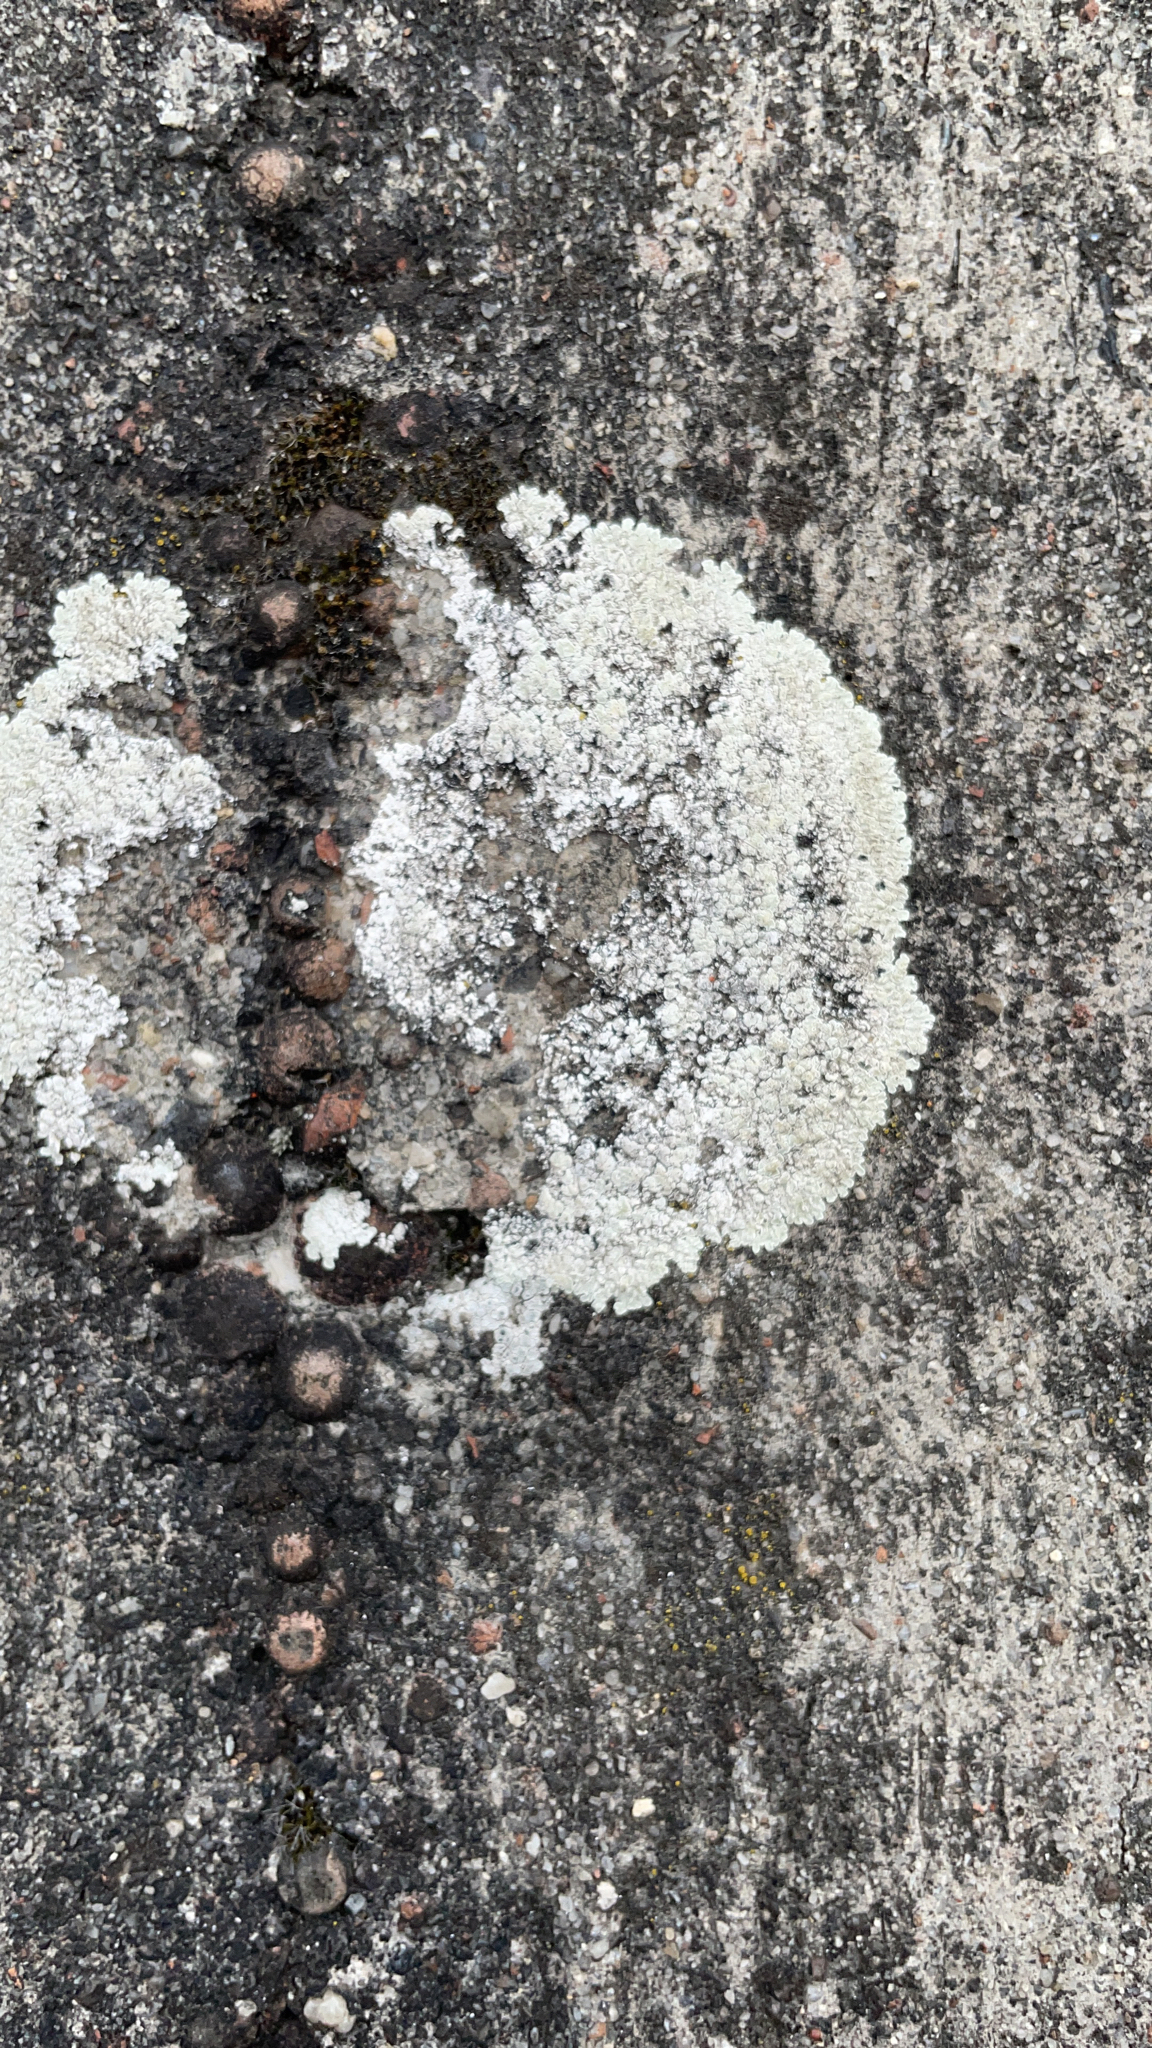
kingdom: Fungi
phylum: Ascomycota
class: Lecanoromycetes
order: Lecanorales
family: Lecanoraceae
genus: Protoparmeliopsis
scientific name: Protoparmeliopsis muralis
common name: Stonewall rim lichen
